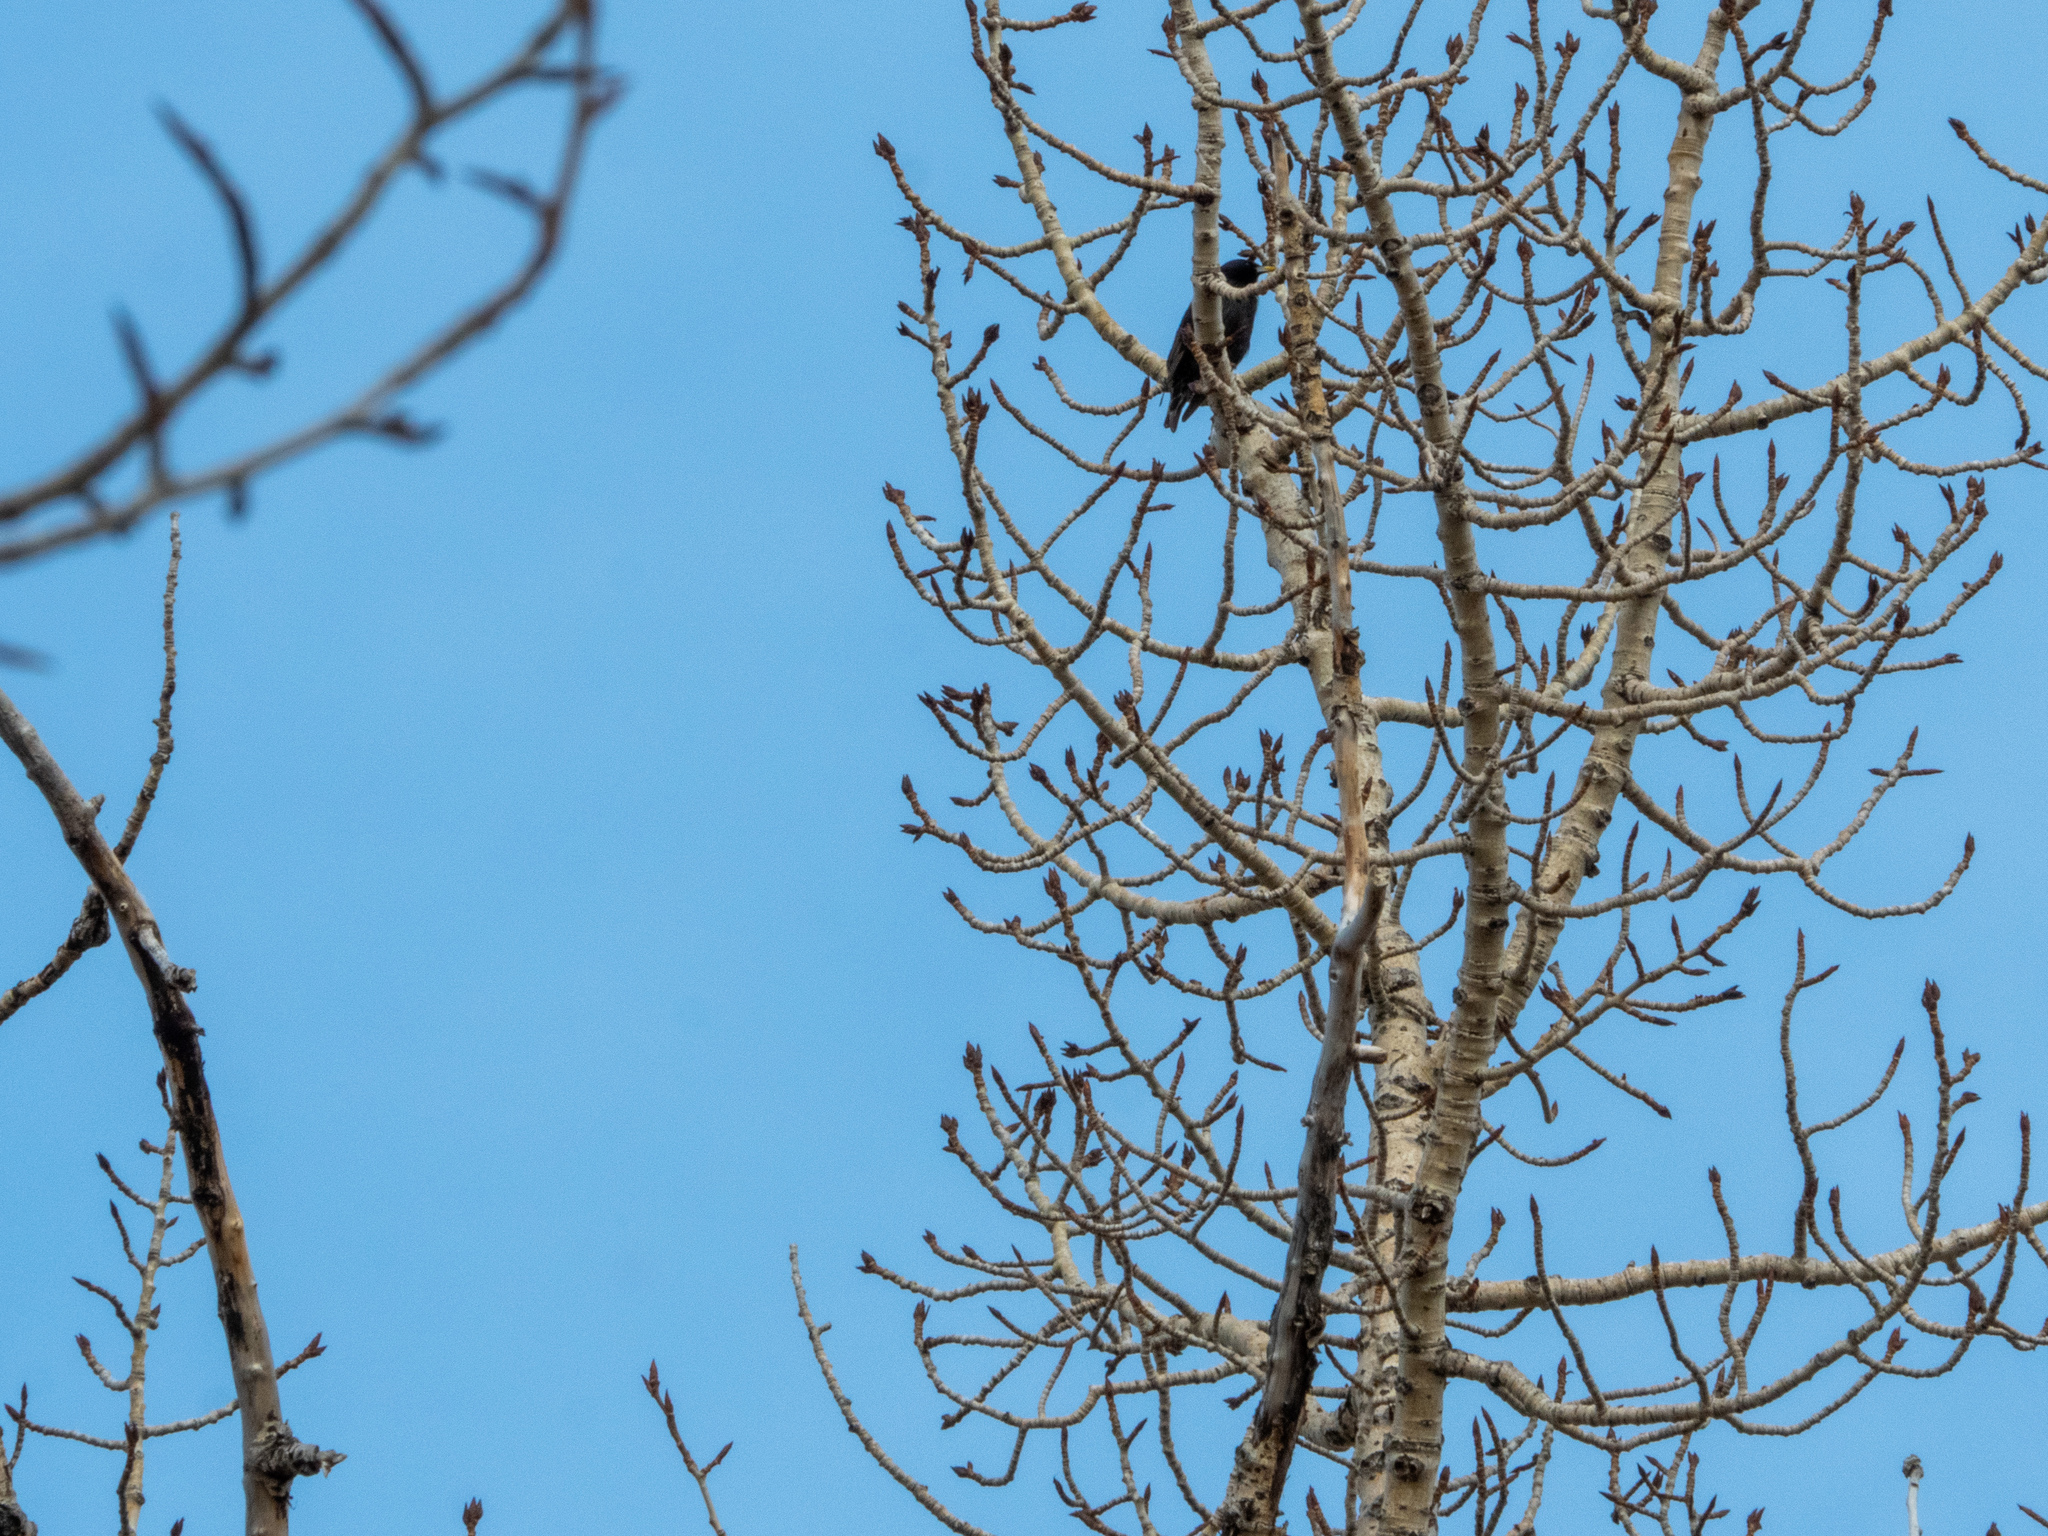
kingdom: Animalia
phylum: Chordata
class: Aves
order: Passeriformes
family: Sturnidae
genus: Sturnus
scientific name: Sturnus vulgaris
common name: Common starling
